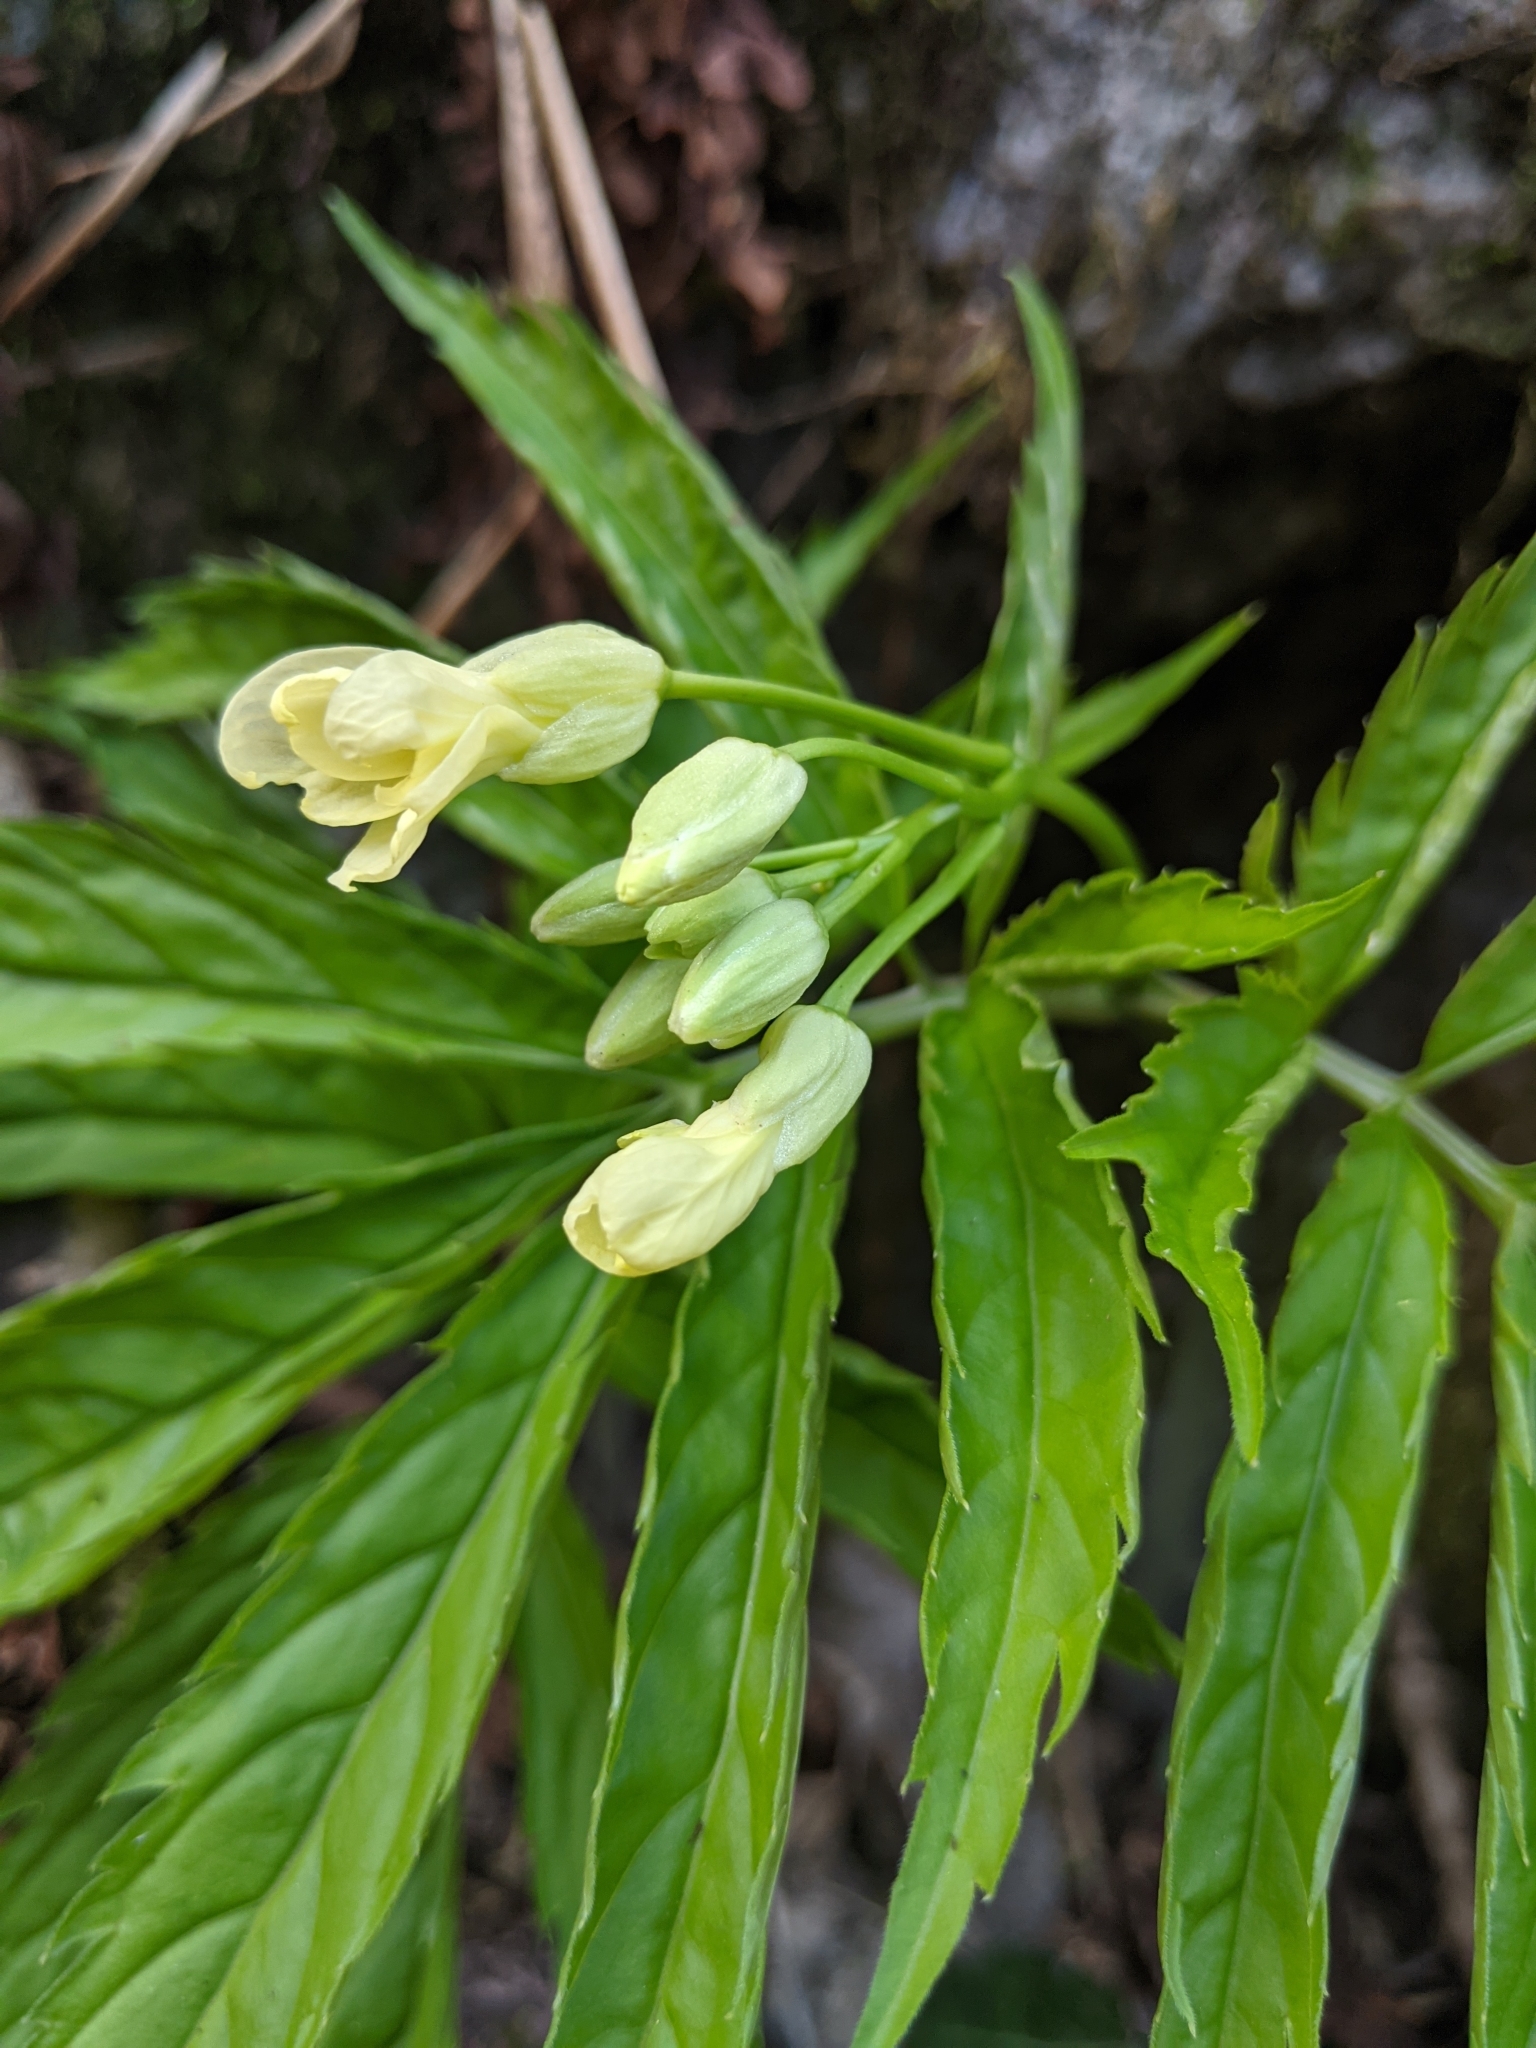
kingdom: Plantae
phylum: Tracheophyta
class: Magnoliopsida
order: Brassicales
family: Brassicaceae
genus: Cardamine
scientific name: Cardamine kitaibelii
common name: Kitaibel's bitter-cress
